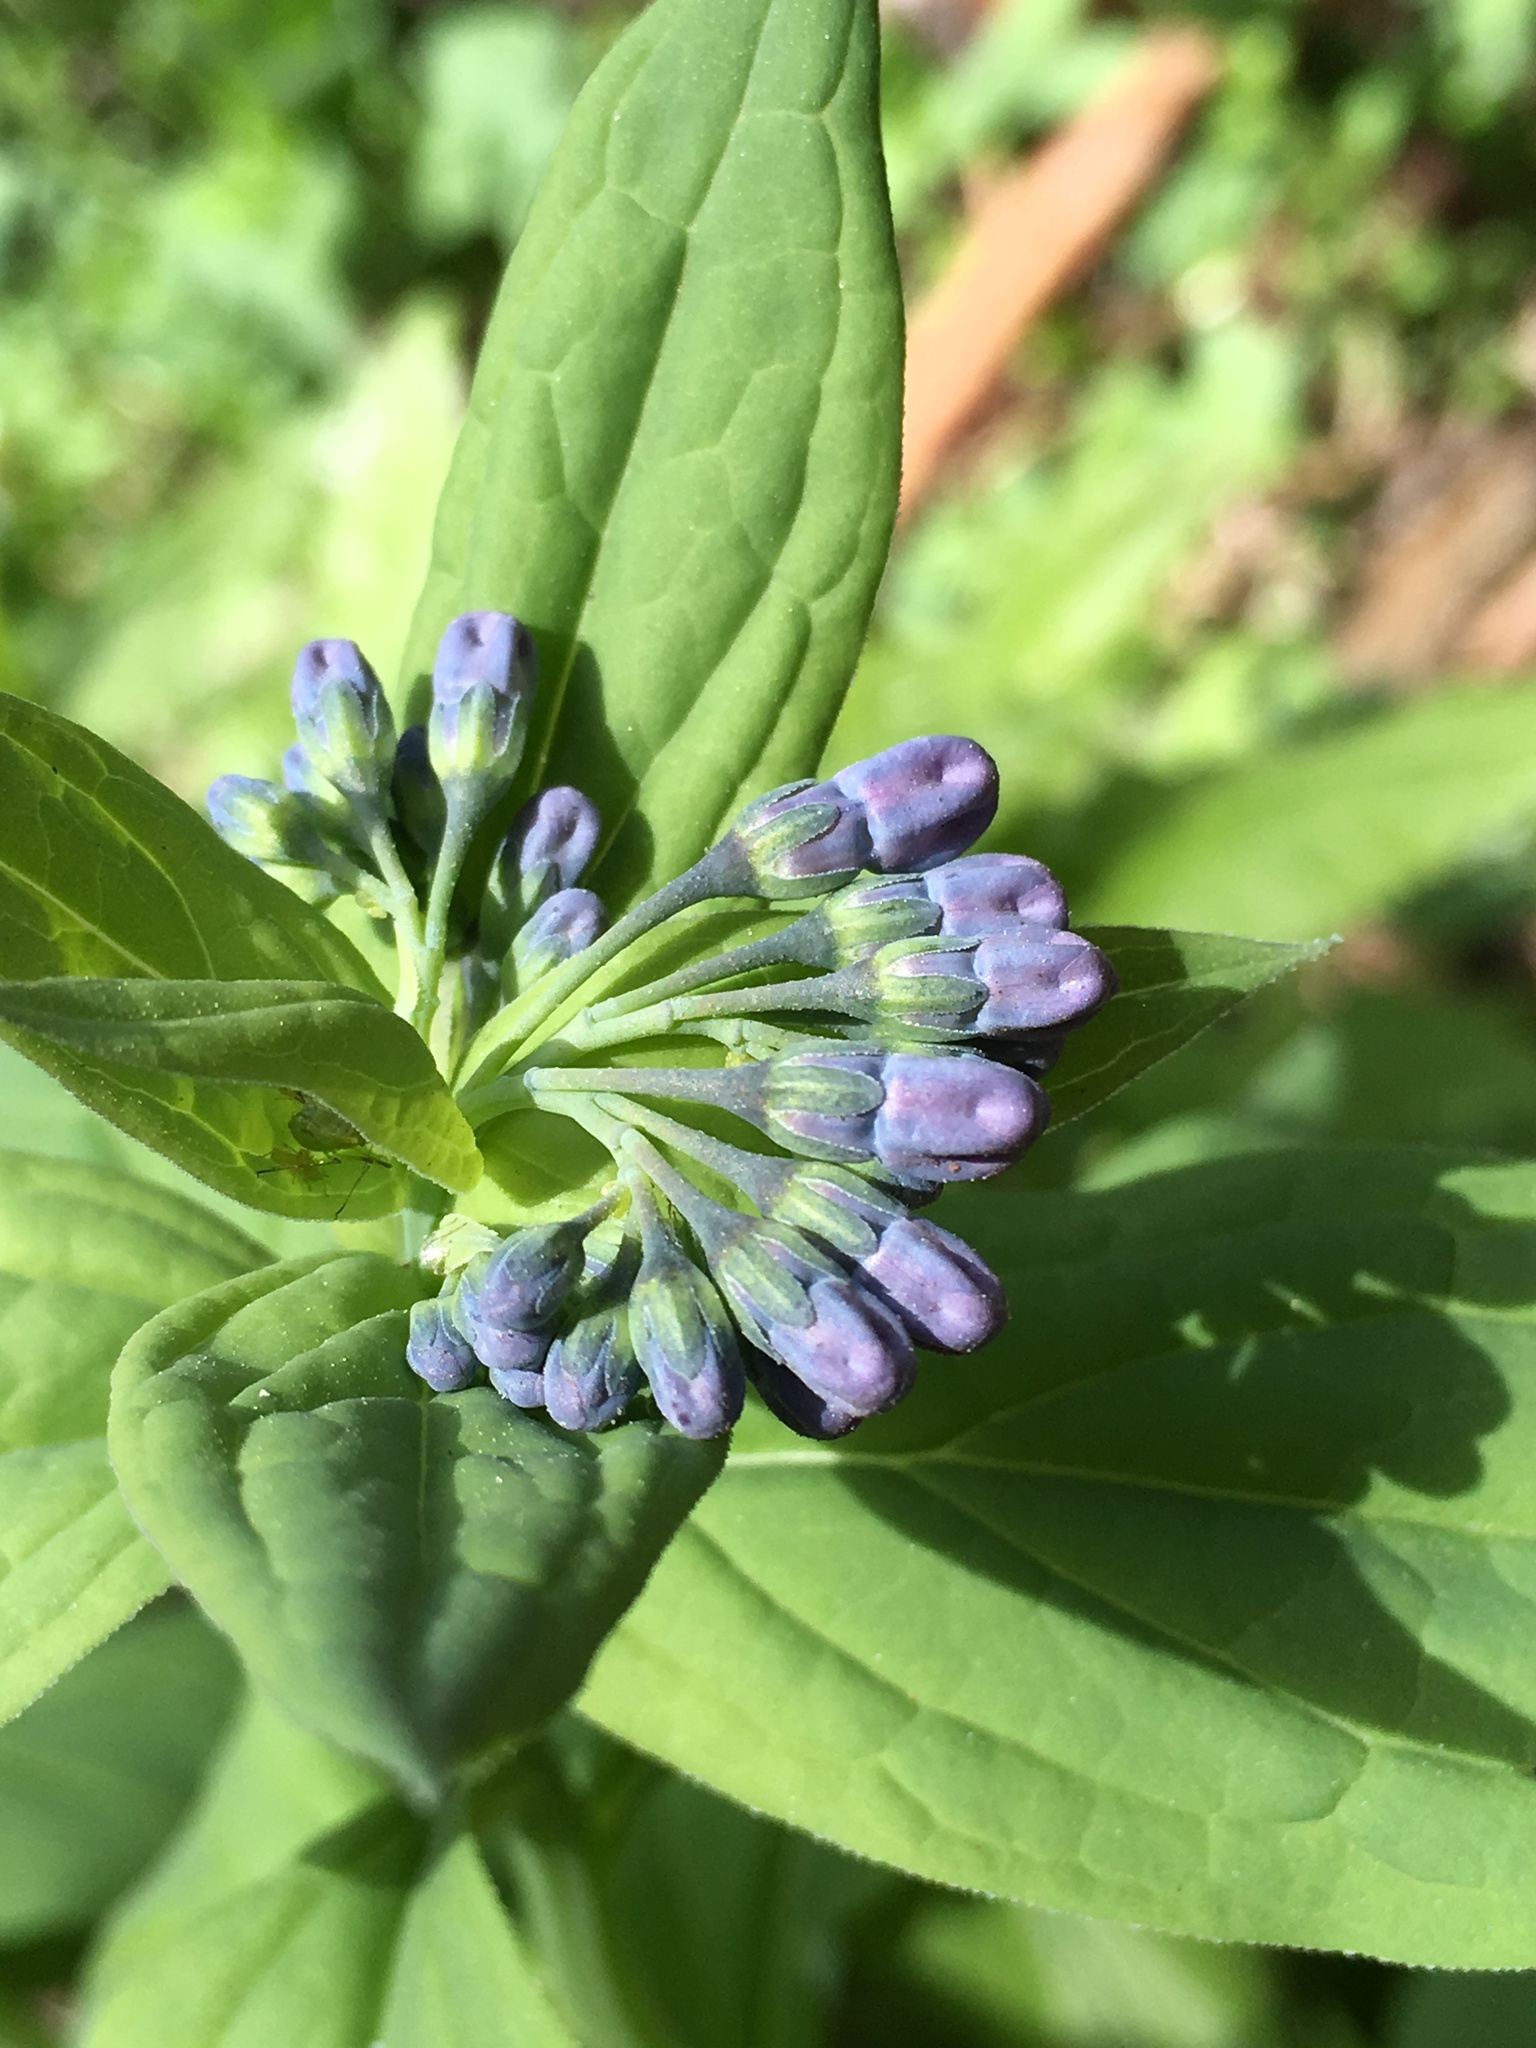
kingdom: Plantae
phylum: Tracheophyta
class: Magnoliopsida
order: Boraginales
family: Boraginaceae
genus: Mertensia
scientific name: Mertensia ciliata
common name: Tall chiming-bells
